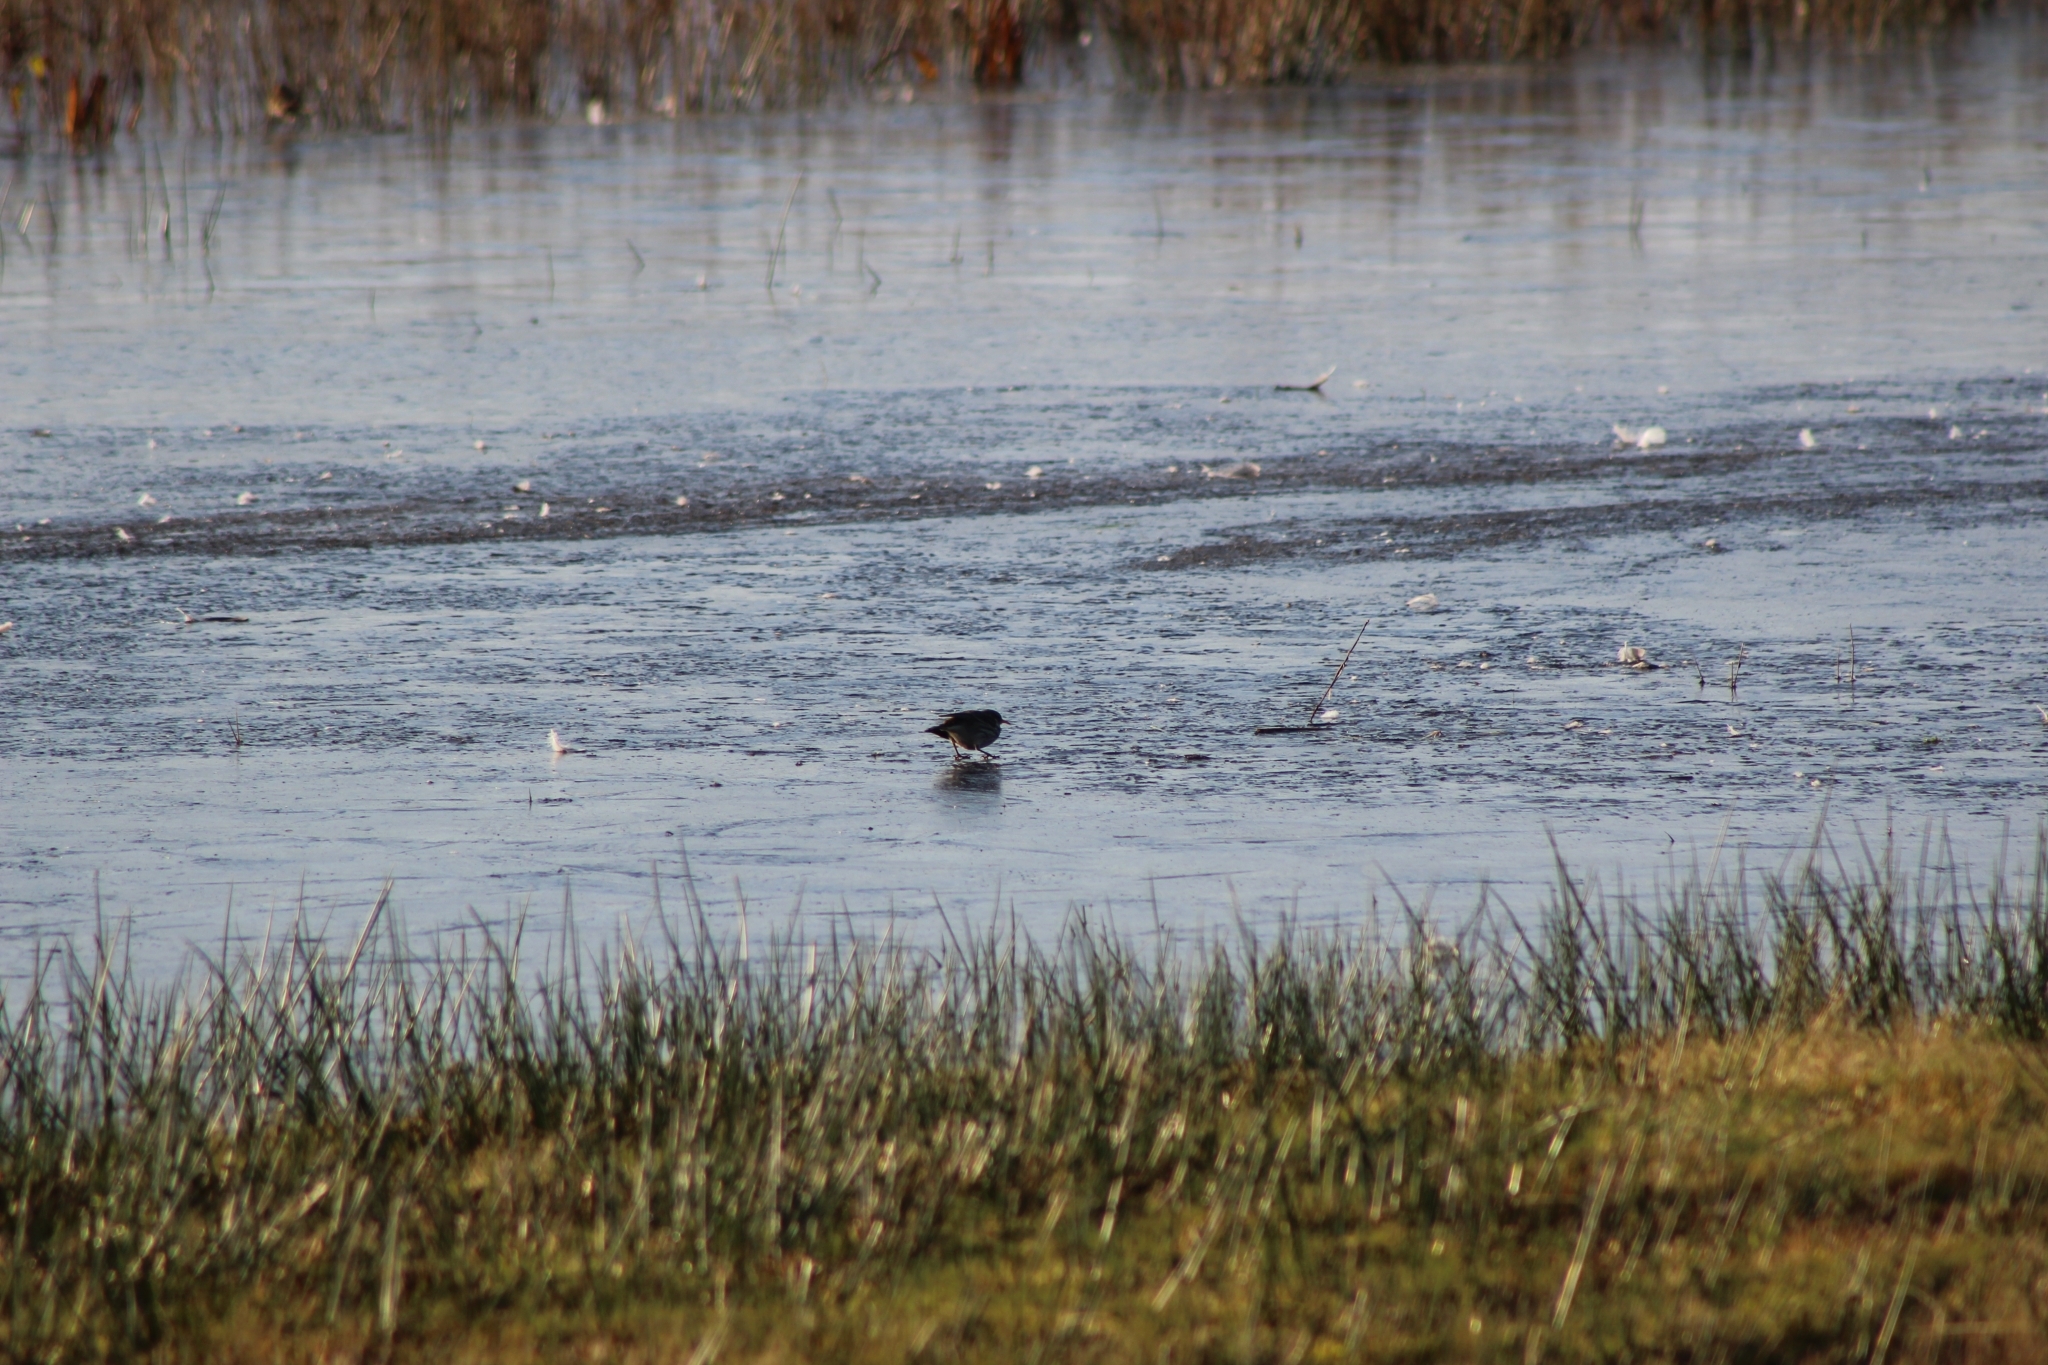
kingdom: Animalia
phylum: Chordata
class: Aves
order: Passeriformes
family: Motacillidae
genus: Anthus
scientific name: Anthus spinoletta
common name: Water pipit
